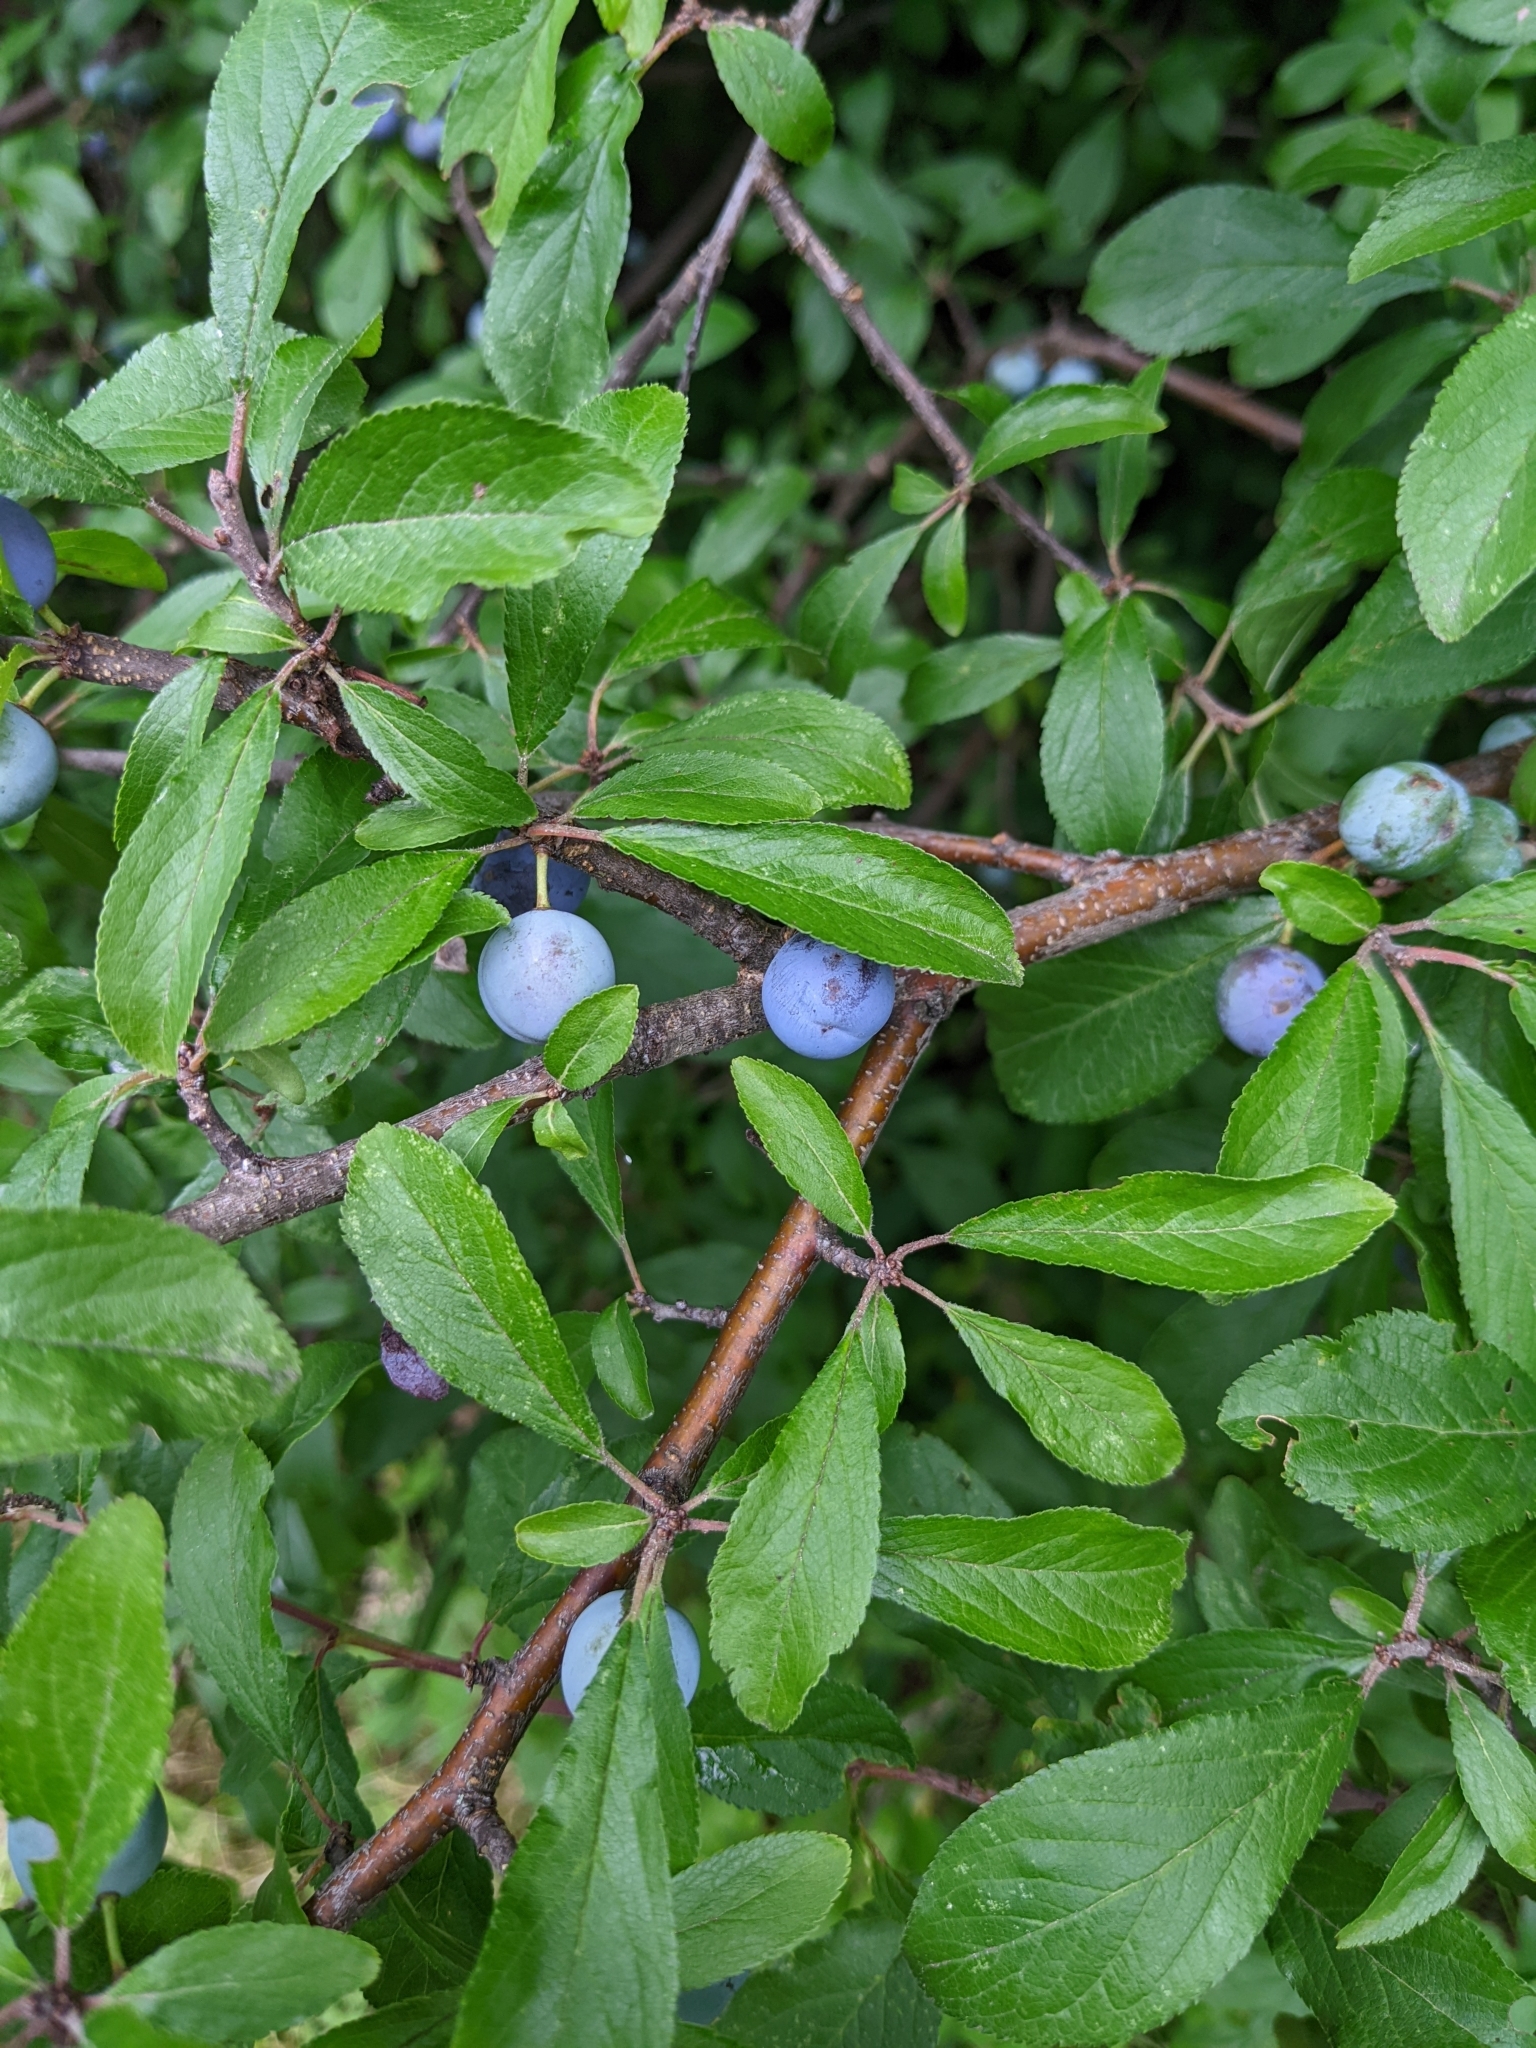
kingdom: Plantae
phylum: Tracheophyta
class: Magnoliopsida
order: Rosales
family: Rosaceae
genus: Prunus
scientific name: Prunus spinosa
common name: Blackthorn
